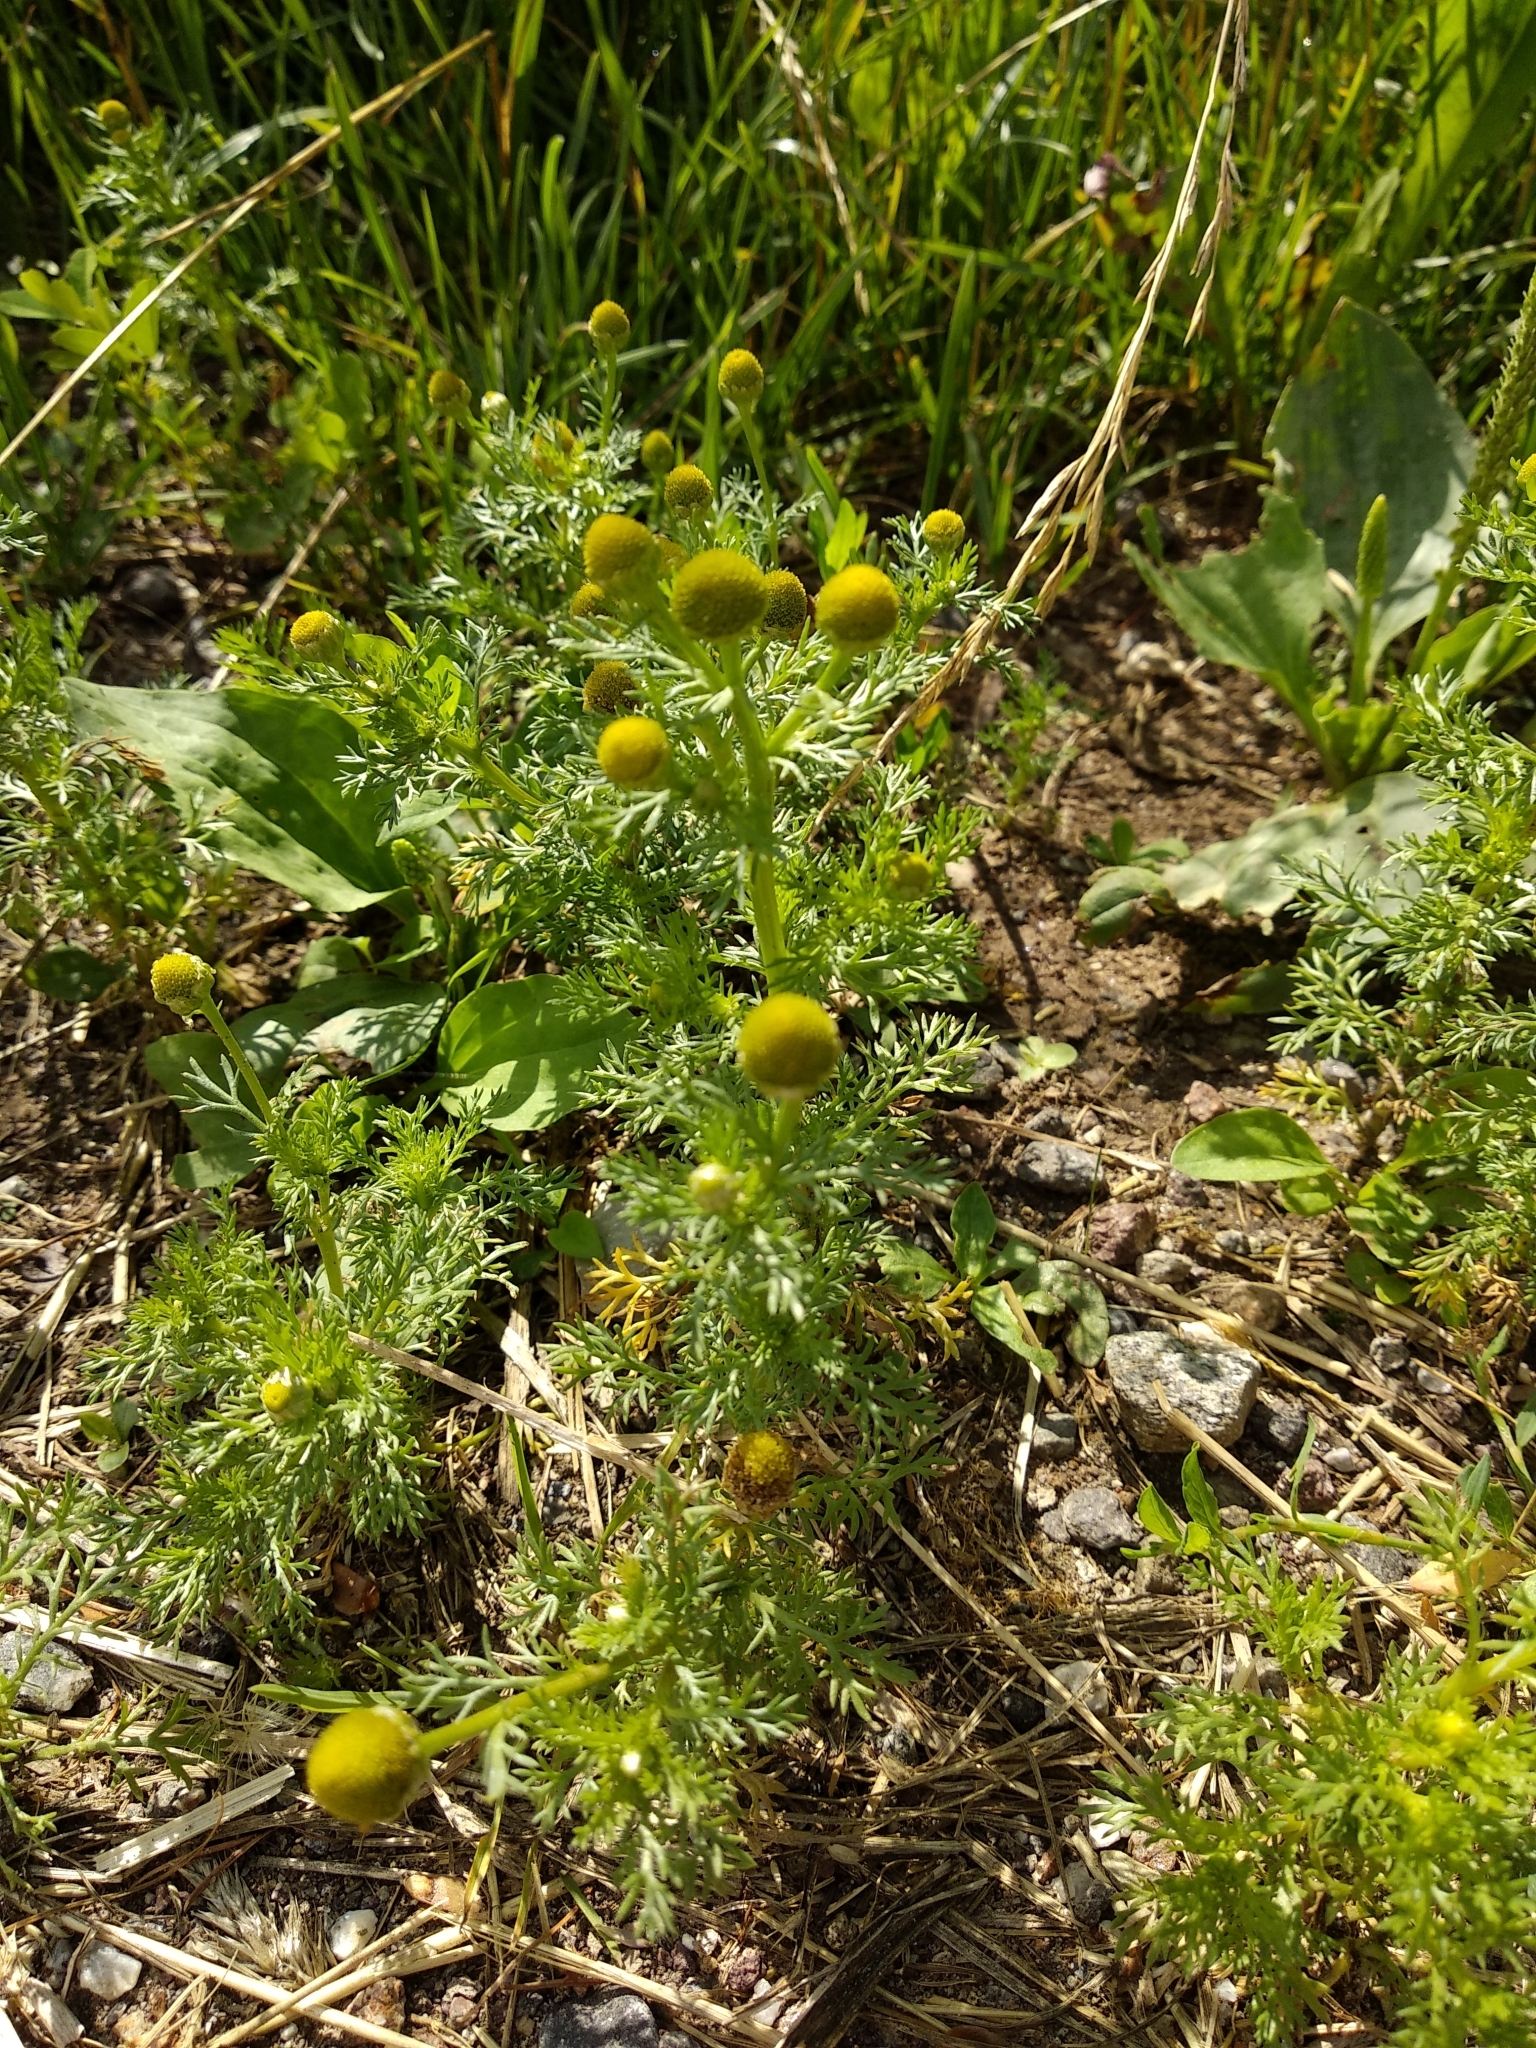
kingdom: Plantae
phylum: Tracheophyta
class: Magnoliopsida
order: Asterales
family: Asteraceae
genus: Matricaria
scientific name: Matricaria discoidea
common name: Disc mayweed
